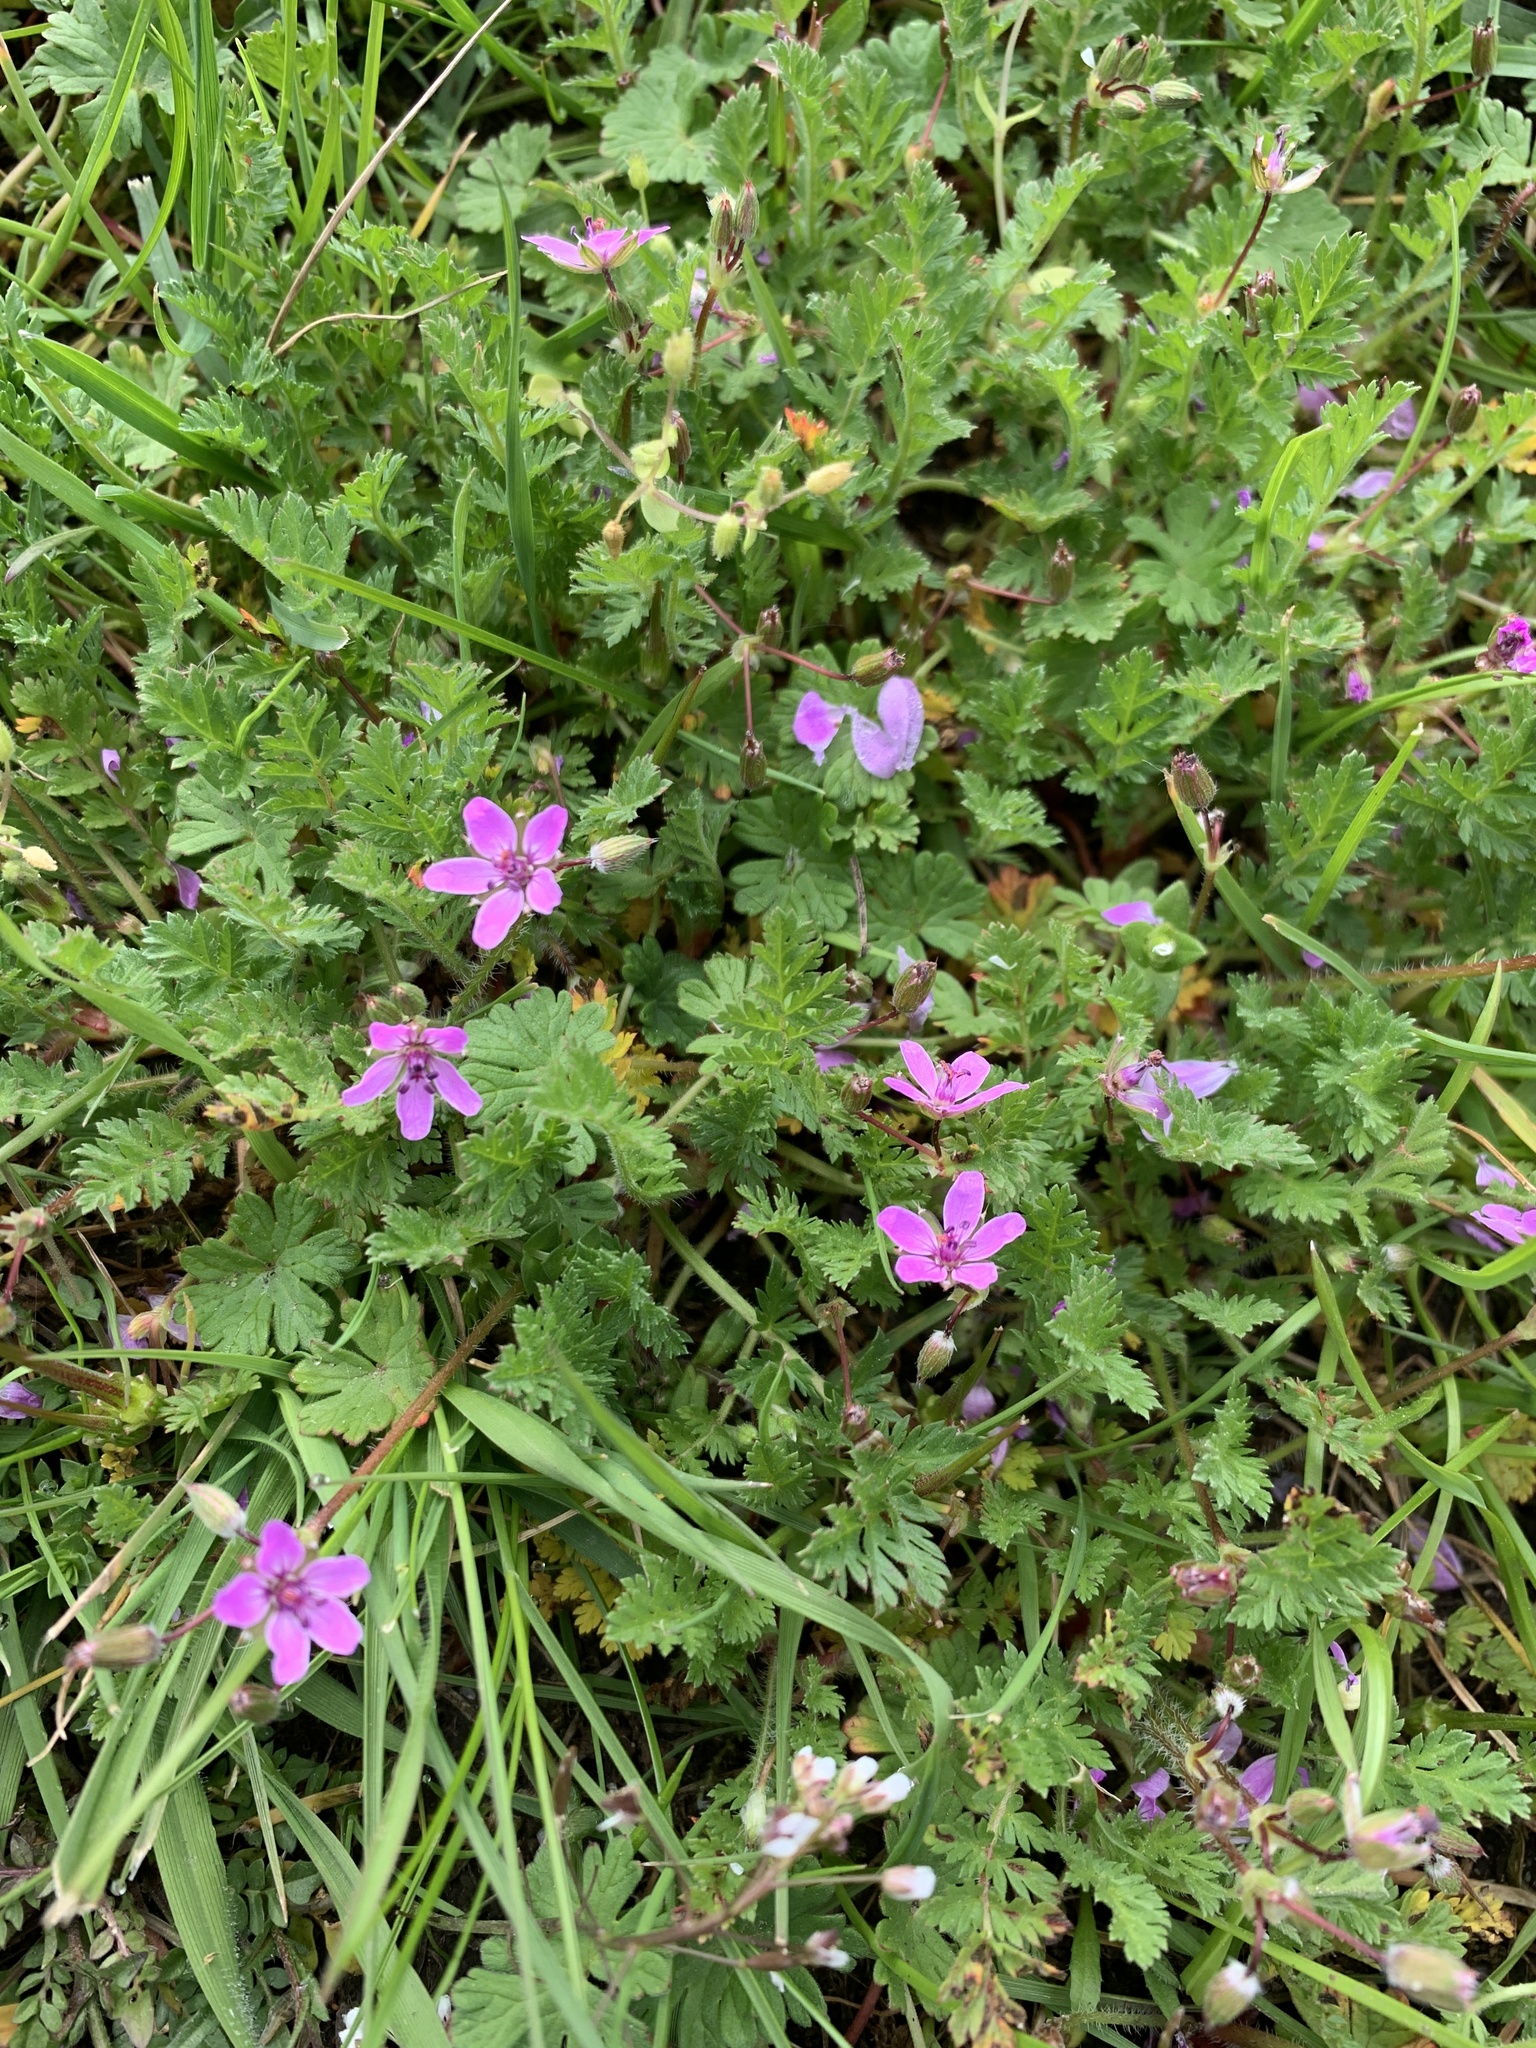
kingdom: Plantae
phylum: Tracheophyta
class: Magnoliopsida
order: Geraniales
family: Geraniaceae
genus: Erodium
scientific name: Erodium cicutarium
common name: Common stork's-bill
